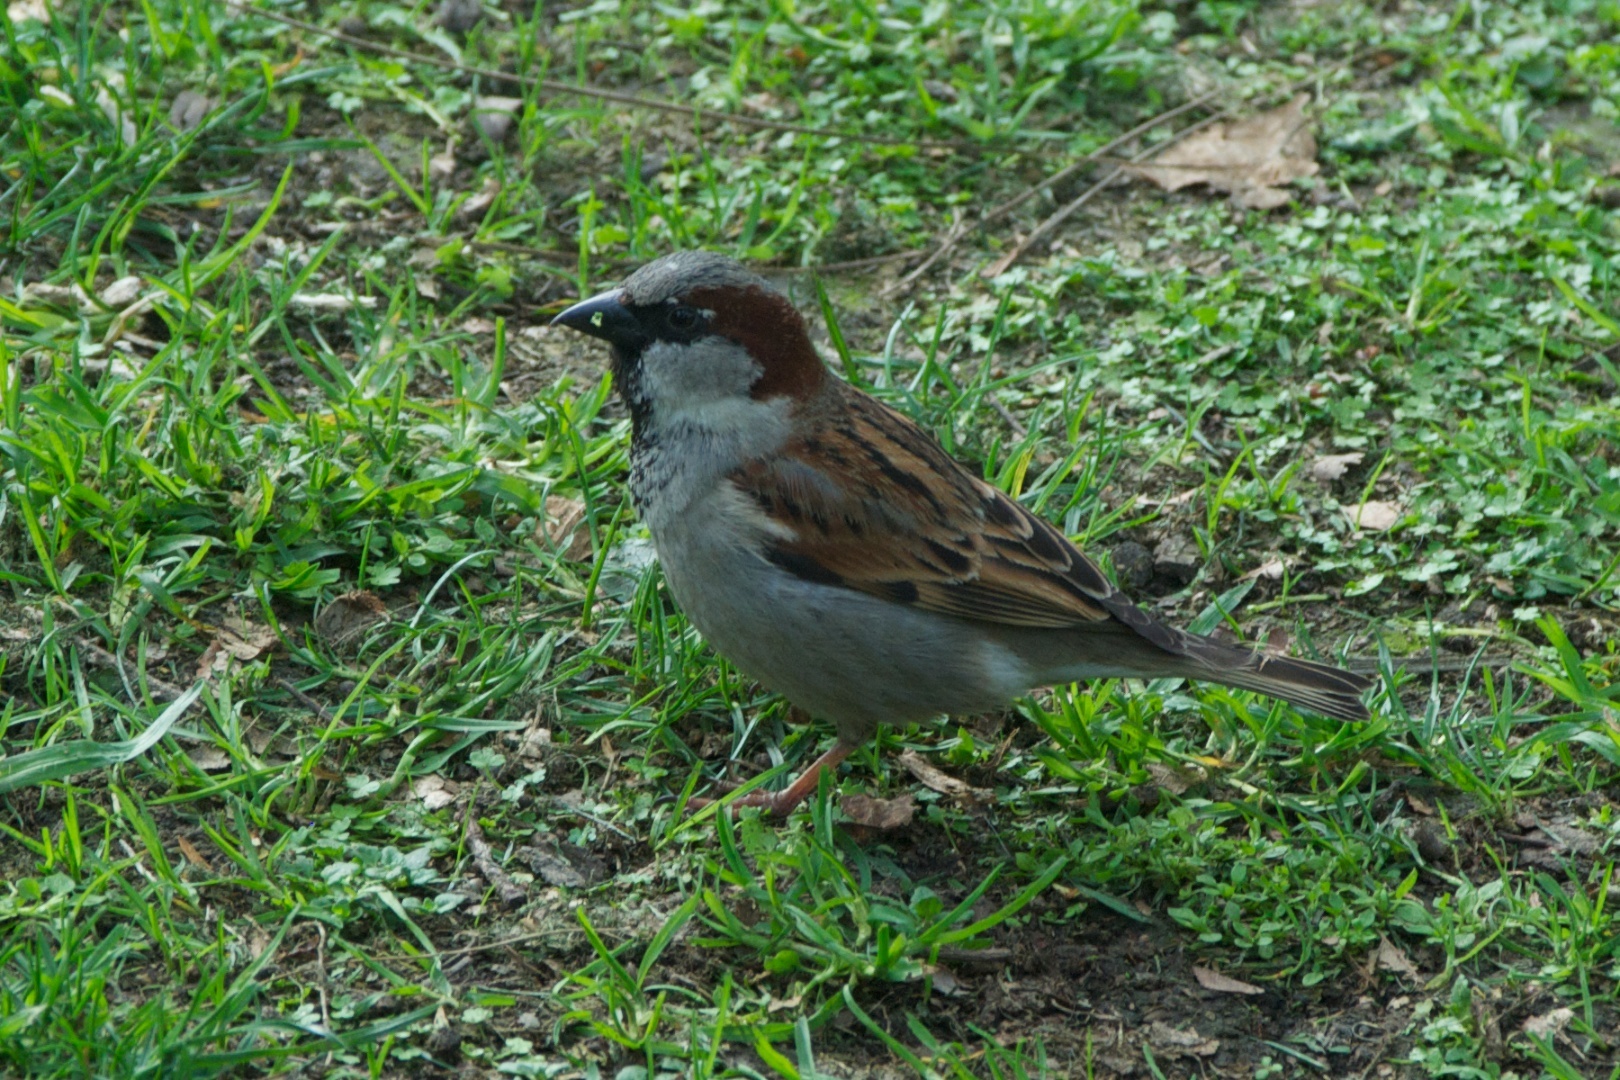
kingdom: Animalia
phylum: Chordata
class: Aves
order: Passeriformes
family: Passeridae
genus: Passer
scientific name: Passer domesticus
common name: House sparrow
